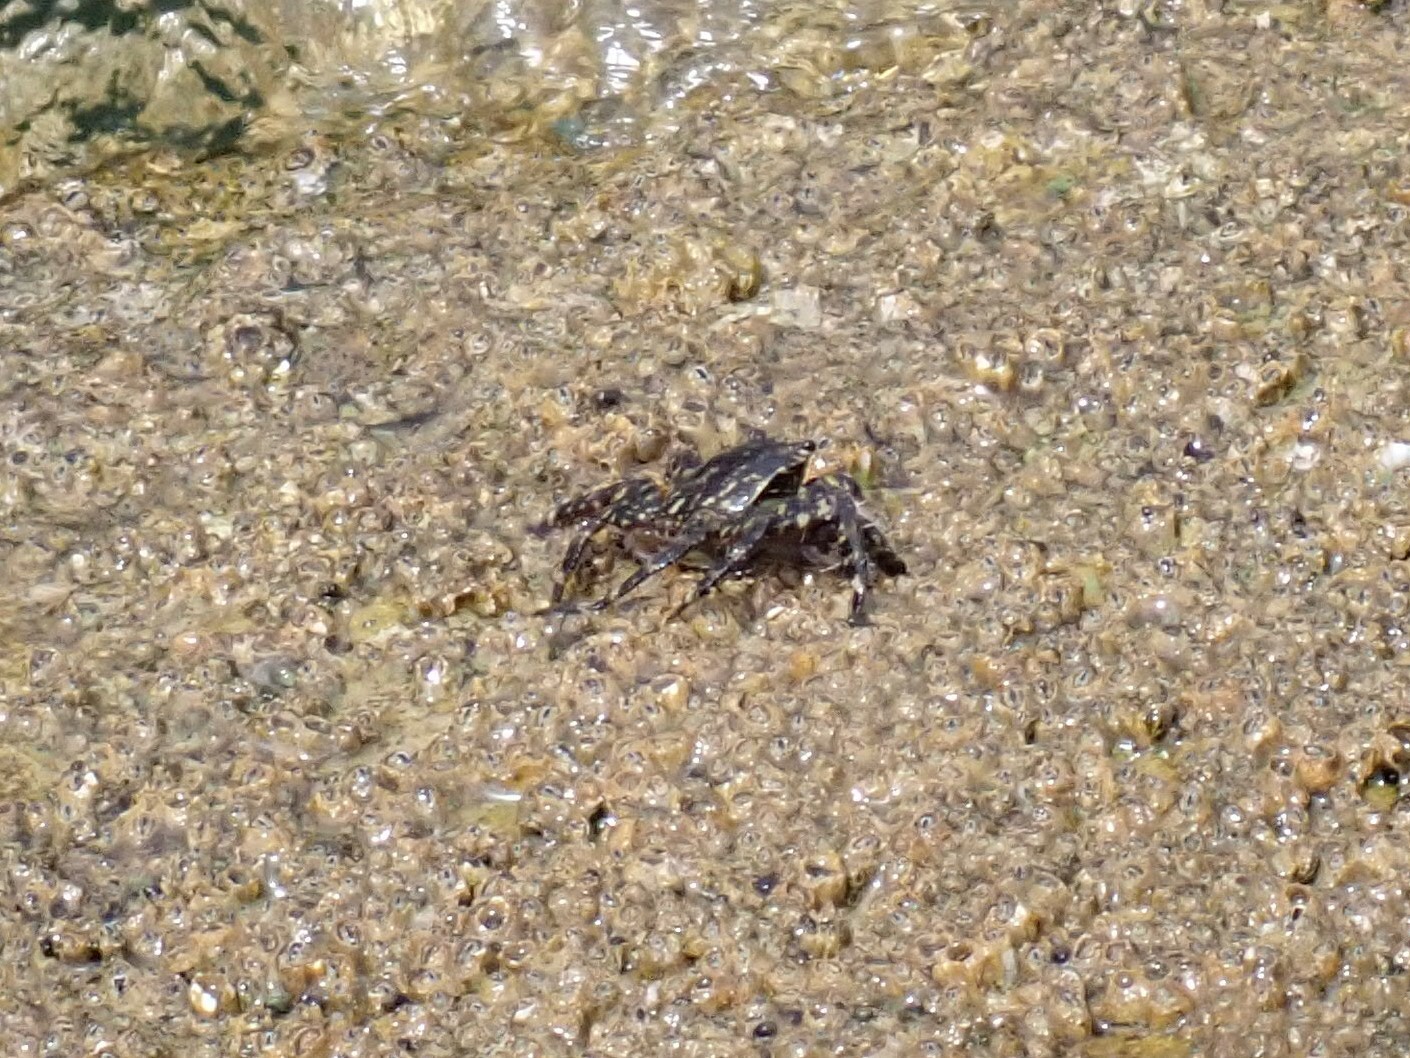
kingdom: Animalia
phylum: Arthropoda
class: Malacostraca
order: Decapoda
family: Grapsidae
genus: Pachygrapsus
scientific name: Pachygrapsus marmoratus
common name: Marbled rock crab
